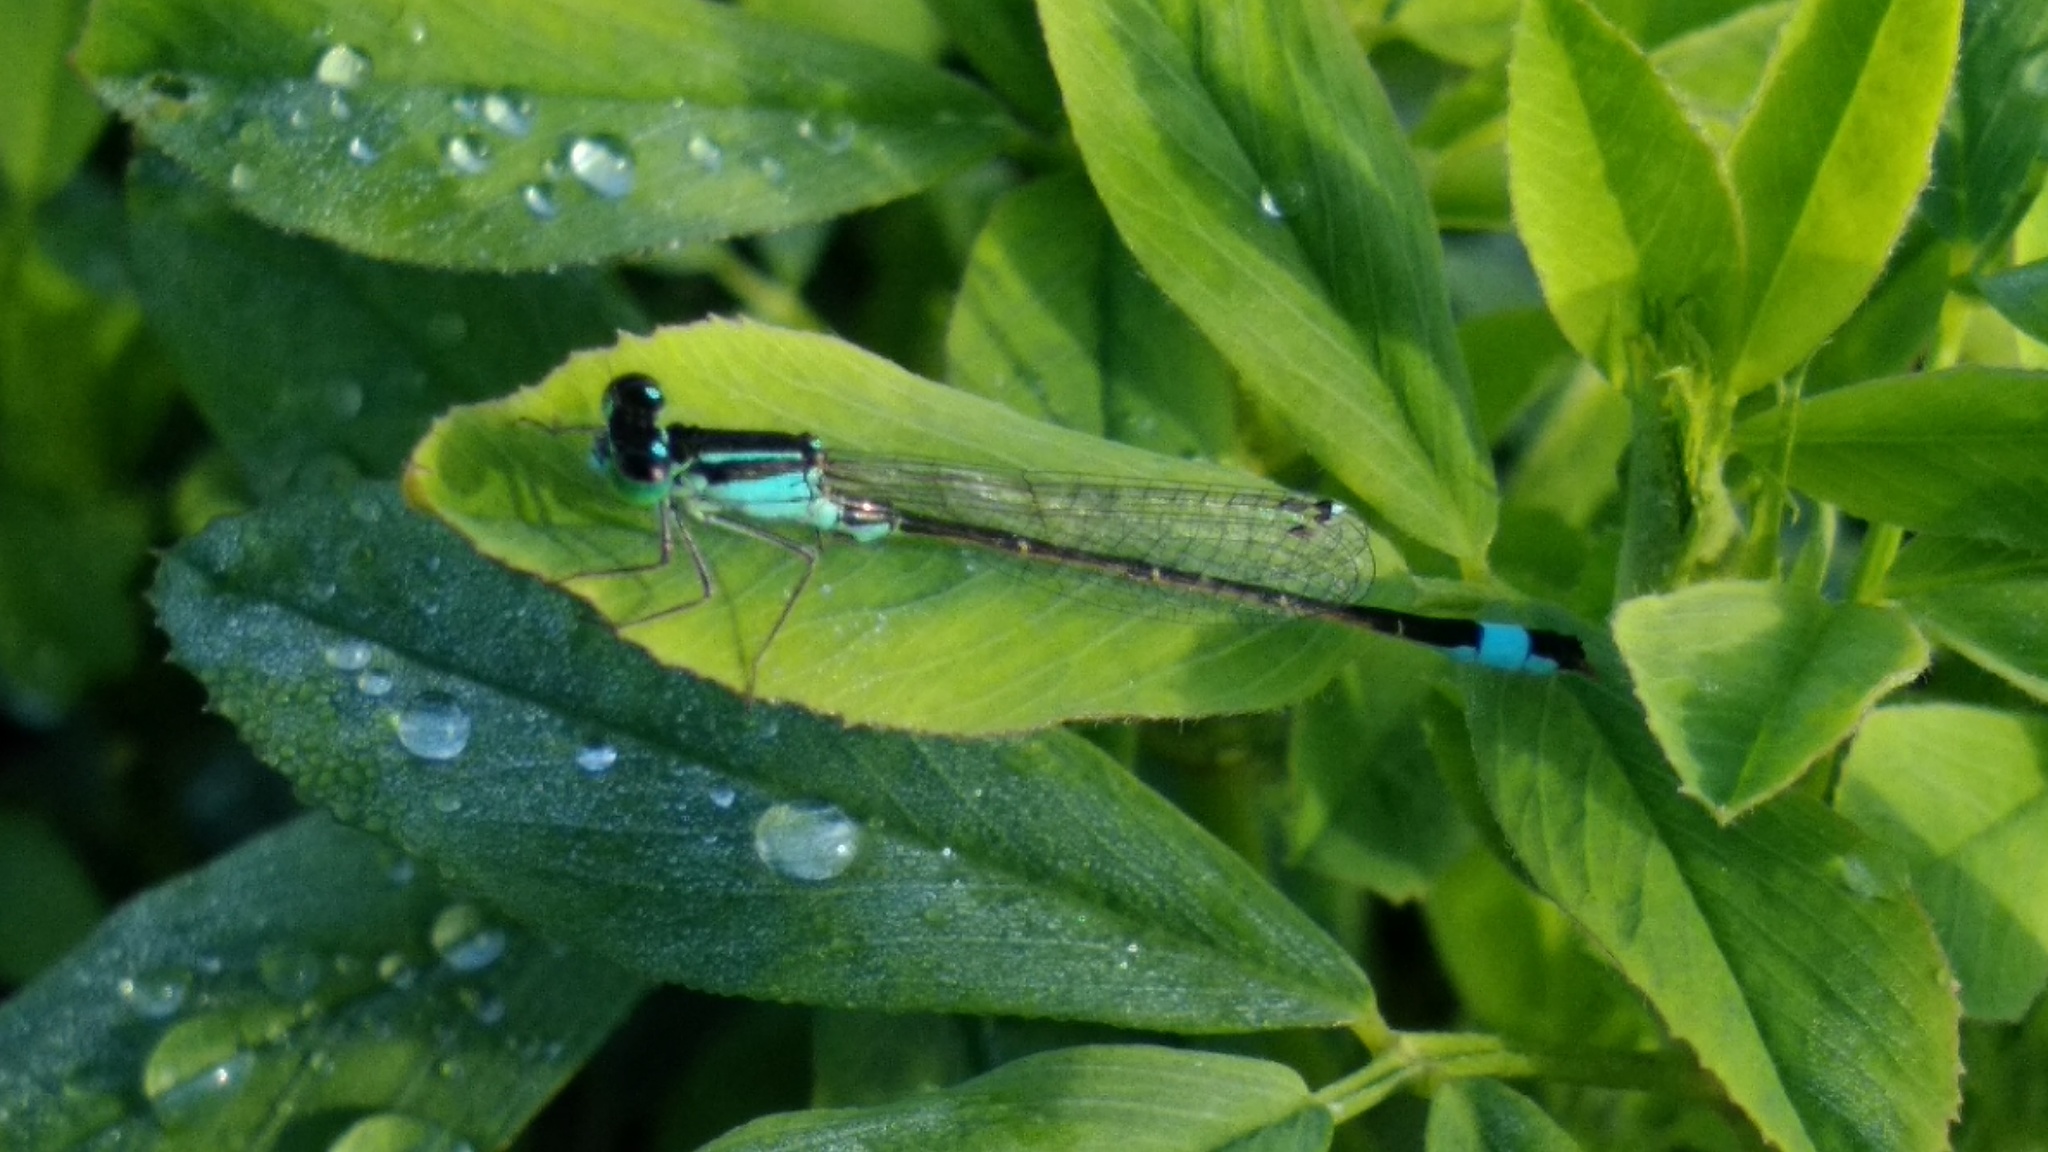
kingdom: Animalia
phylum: Arthropoda
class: Insecta
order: Odonata
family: Coenagrionidae
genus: Ischnura
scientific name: Ischnura elegans
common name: Blue-tailed damselfly
